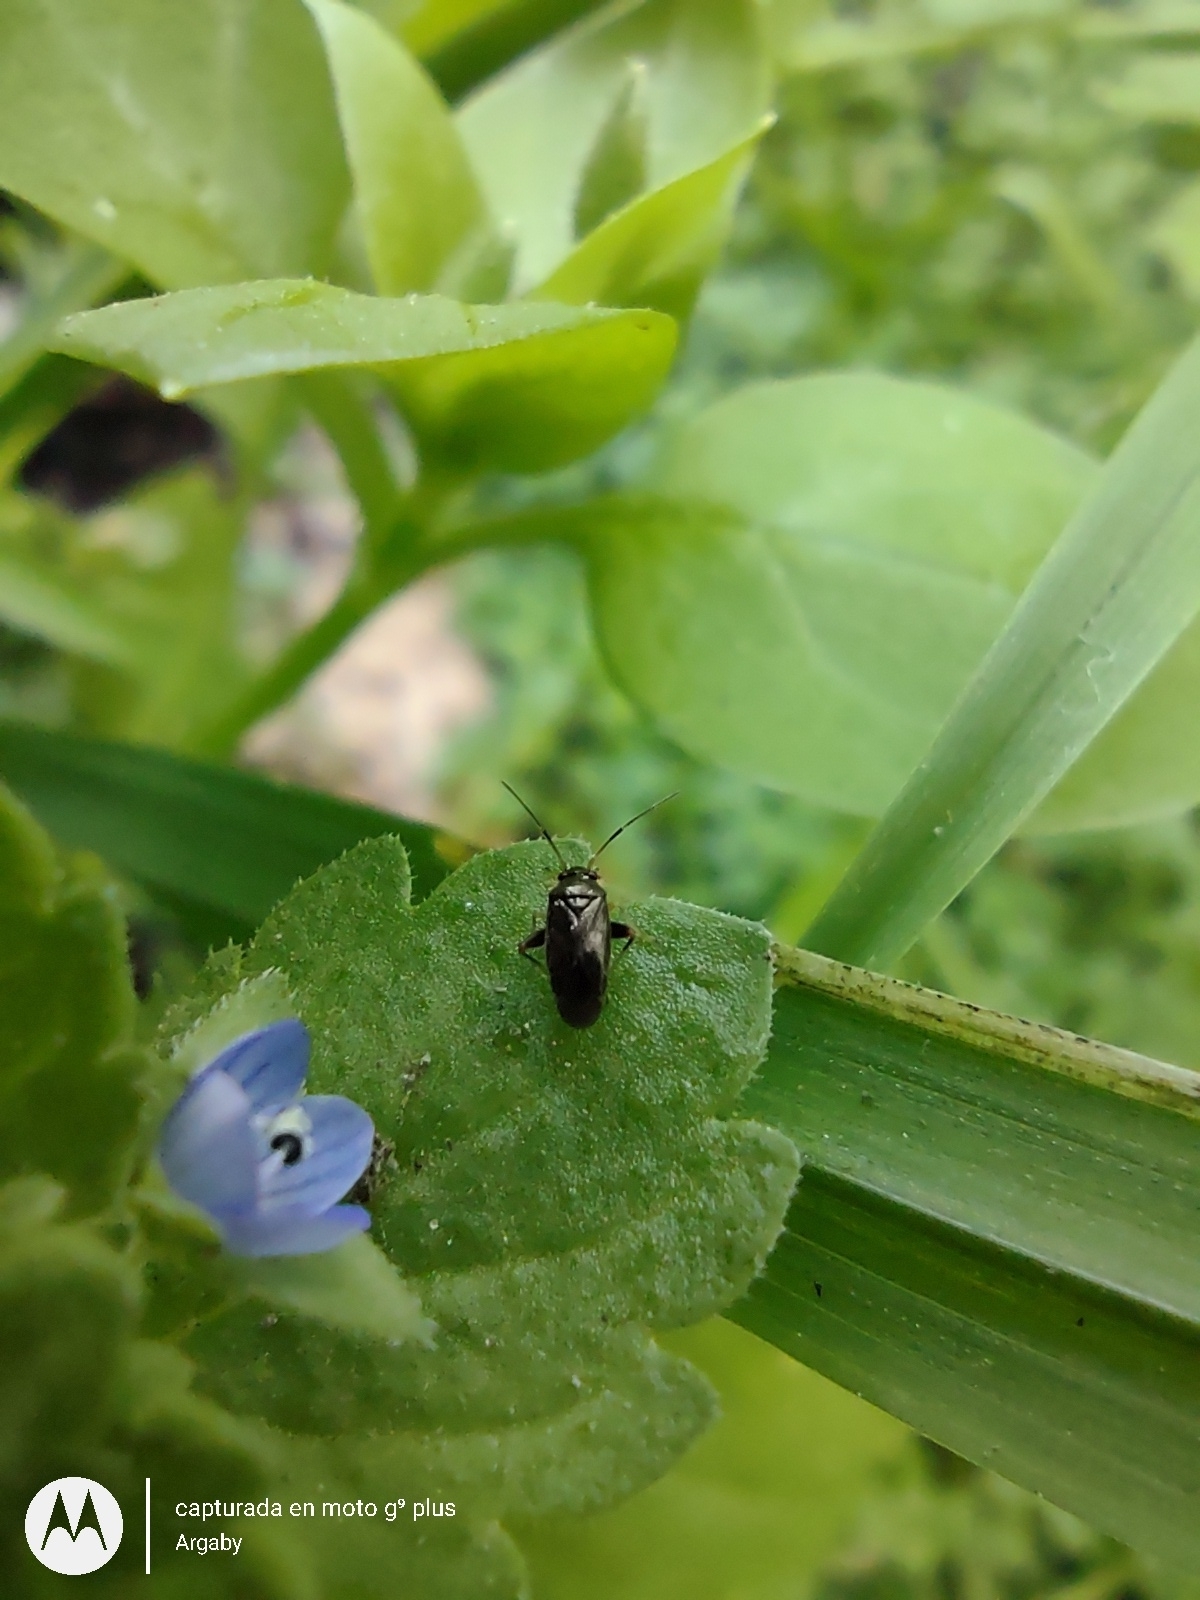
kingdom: Animalia
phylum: Arthropoda
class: Insecta
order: Hemiptera
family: Miridae
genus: Microtechnites
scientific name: Microtechnites spegazzinii
